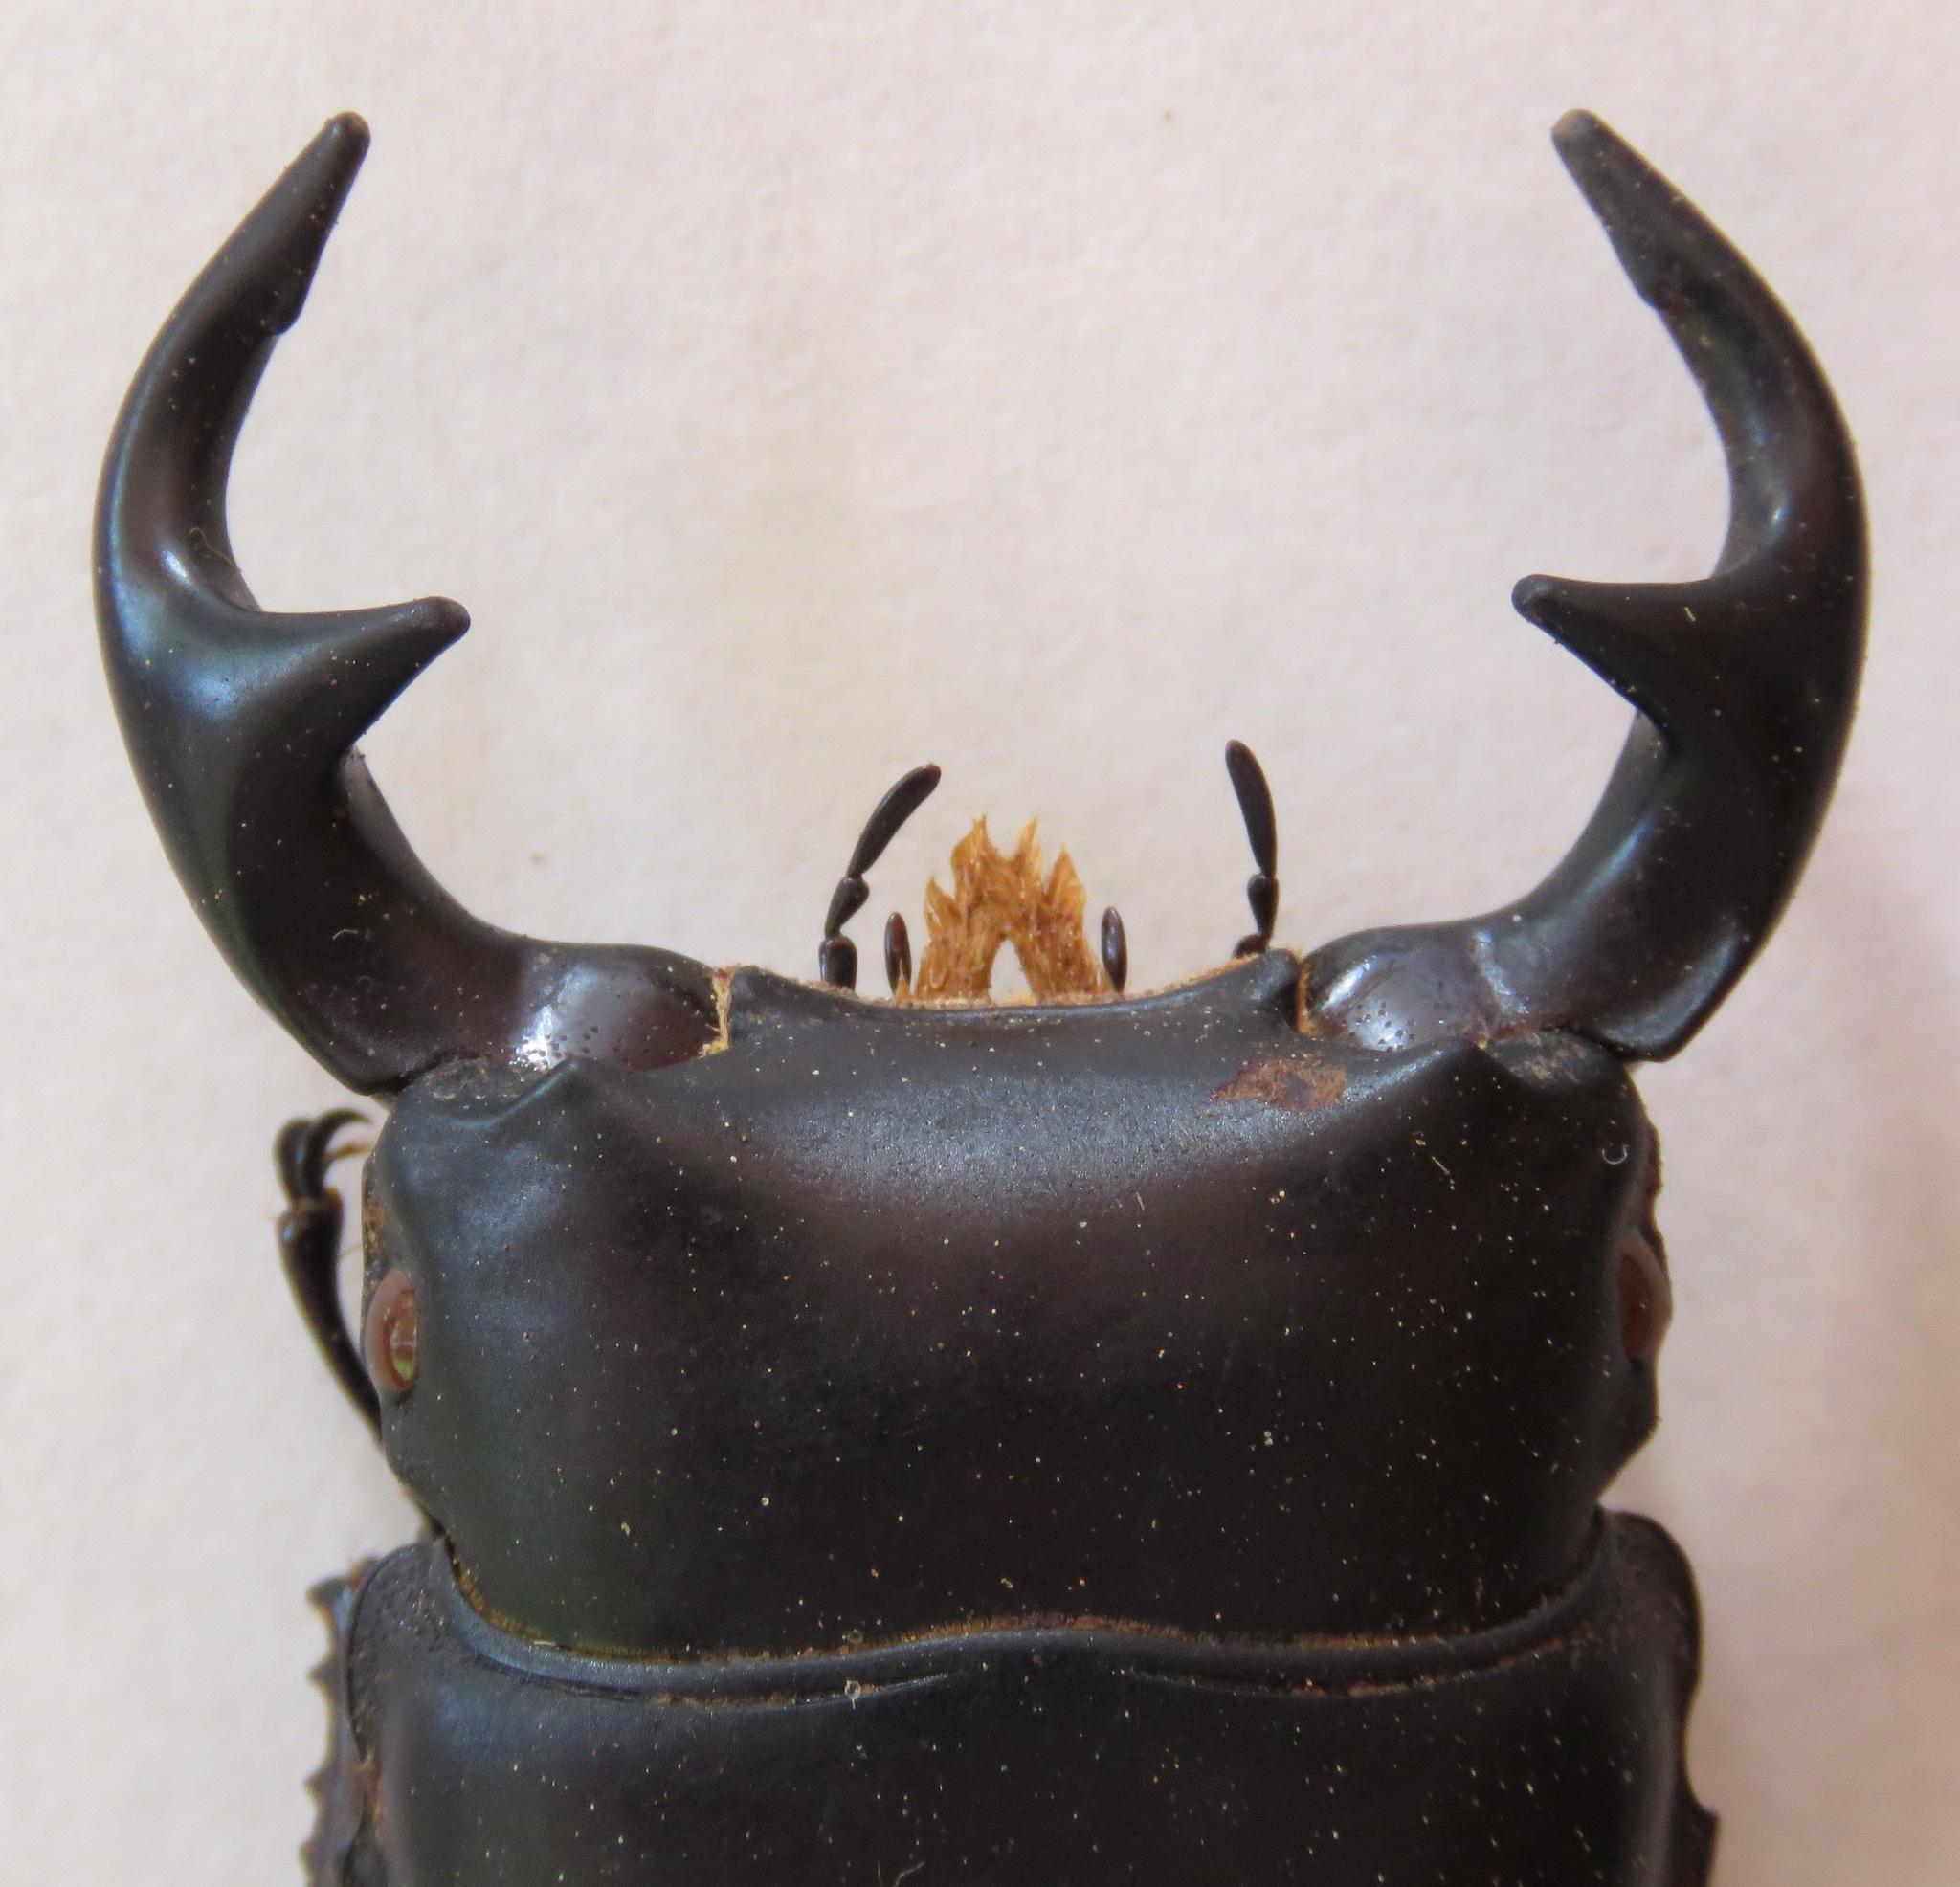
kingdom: Animalia
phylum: Arthropoda
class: Insecta
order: Coleoptera
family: Lucanidae
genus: Dorcus
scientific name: Dorcus curvidens
